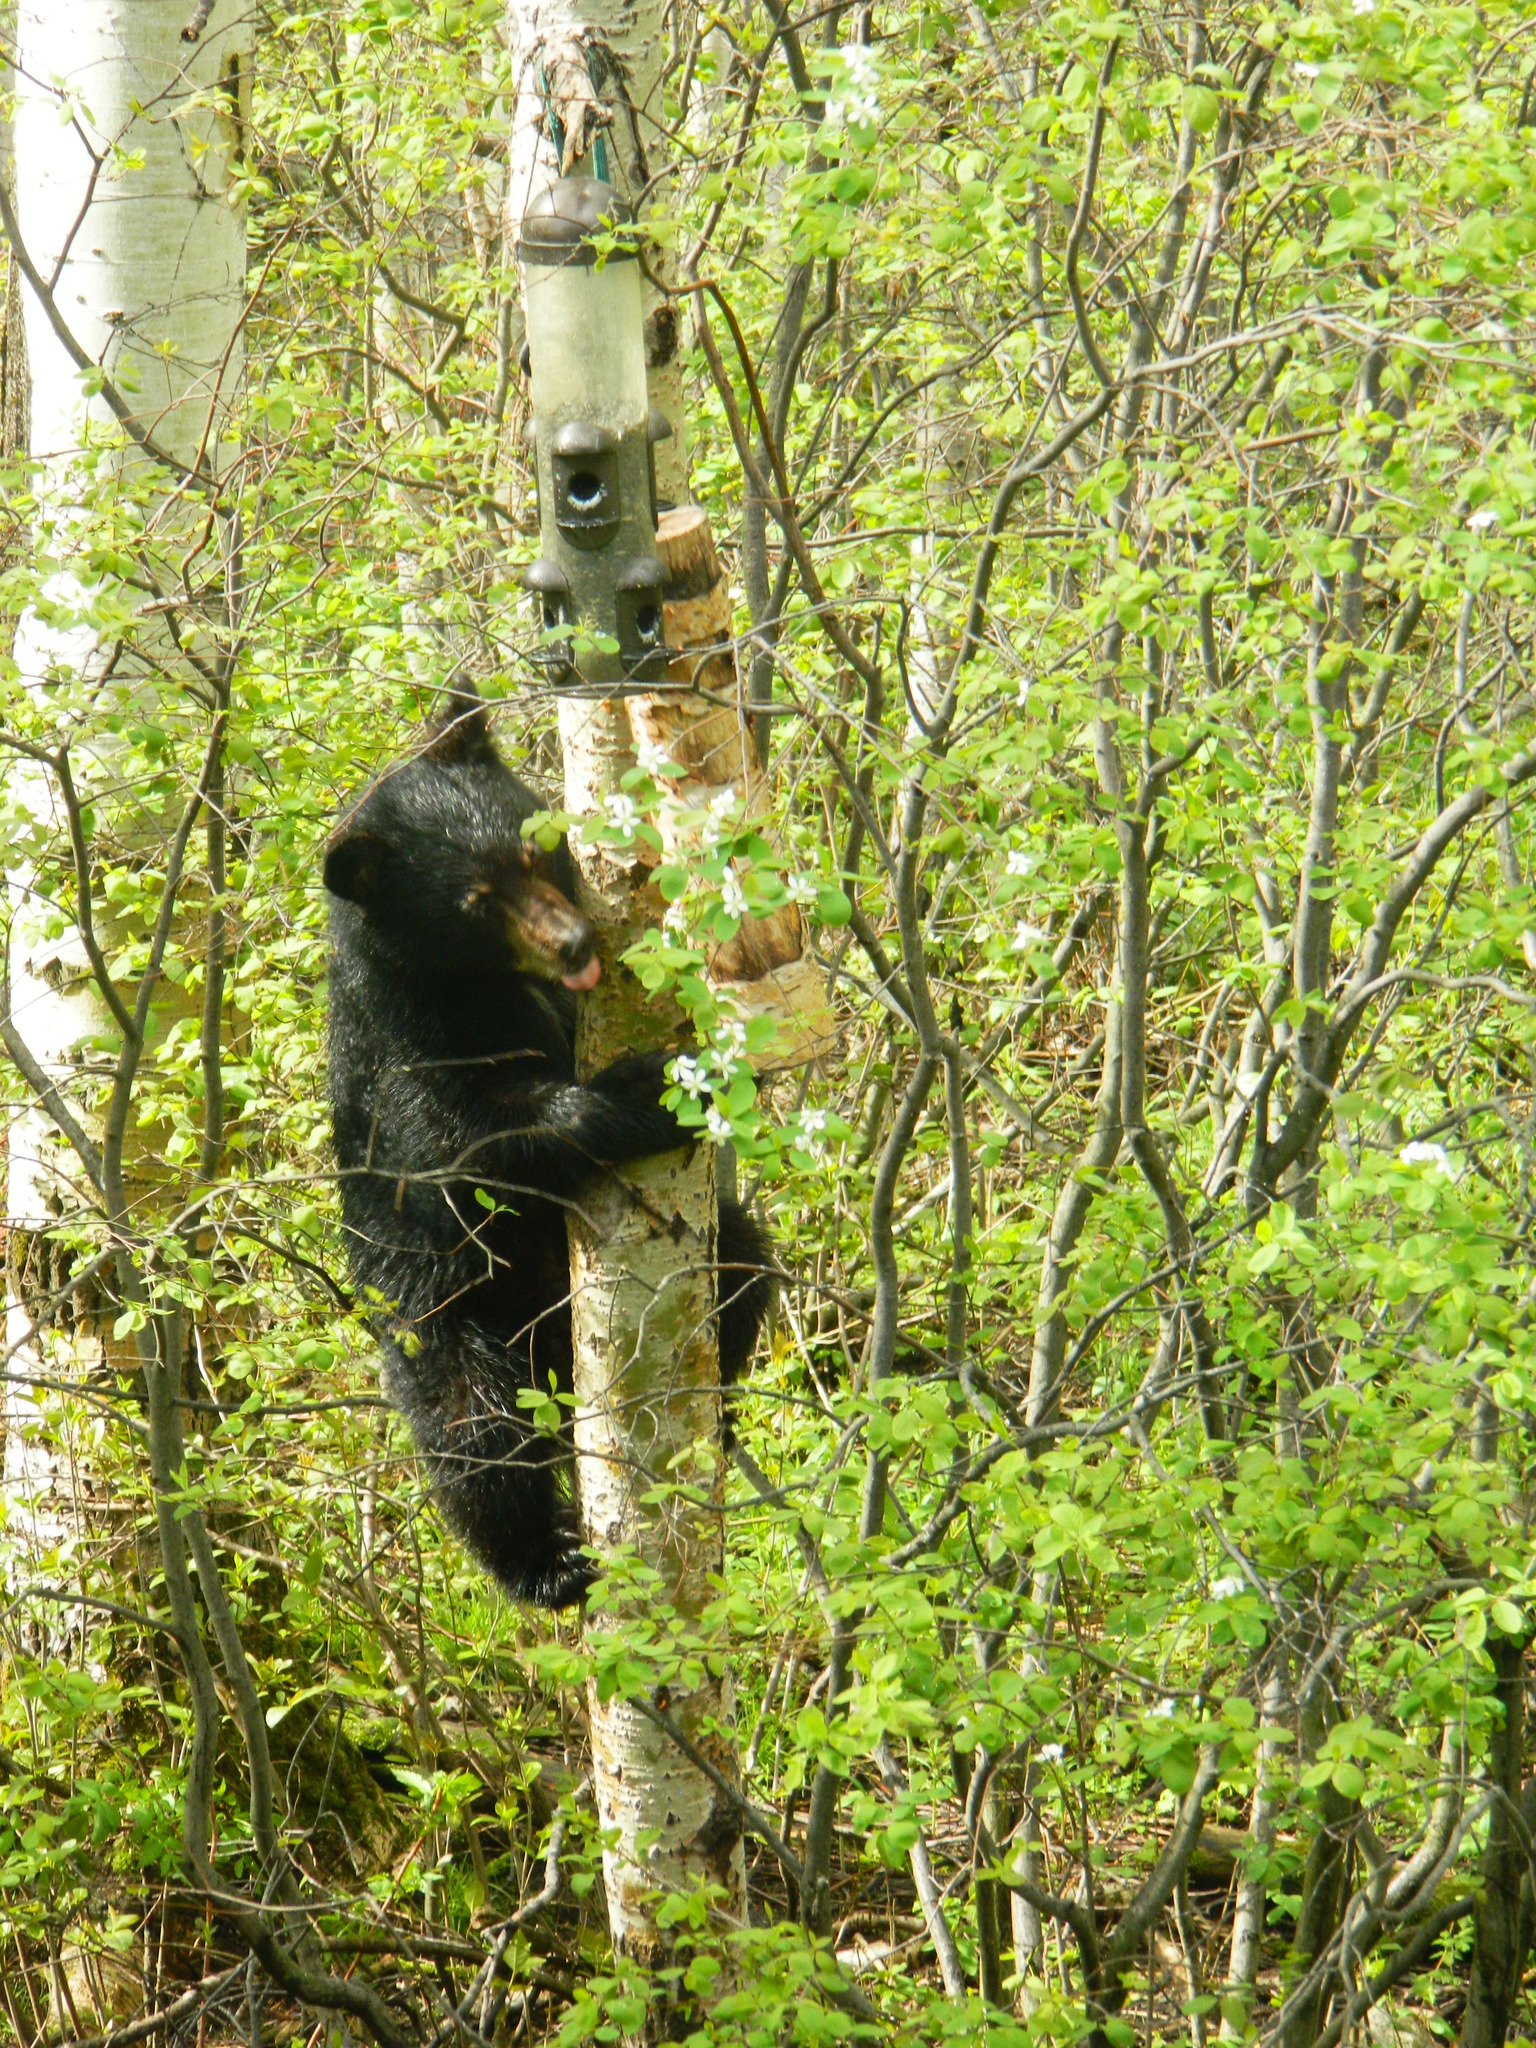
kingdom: Animalia
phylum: Chordata
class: Mammalia
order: Carnivora
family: Ursidae
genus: Ursus
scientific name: Ursus americanus
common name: American black bear
